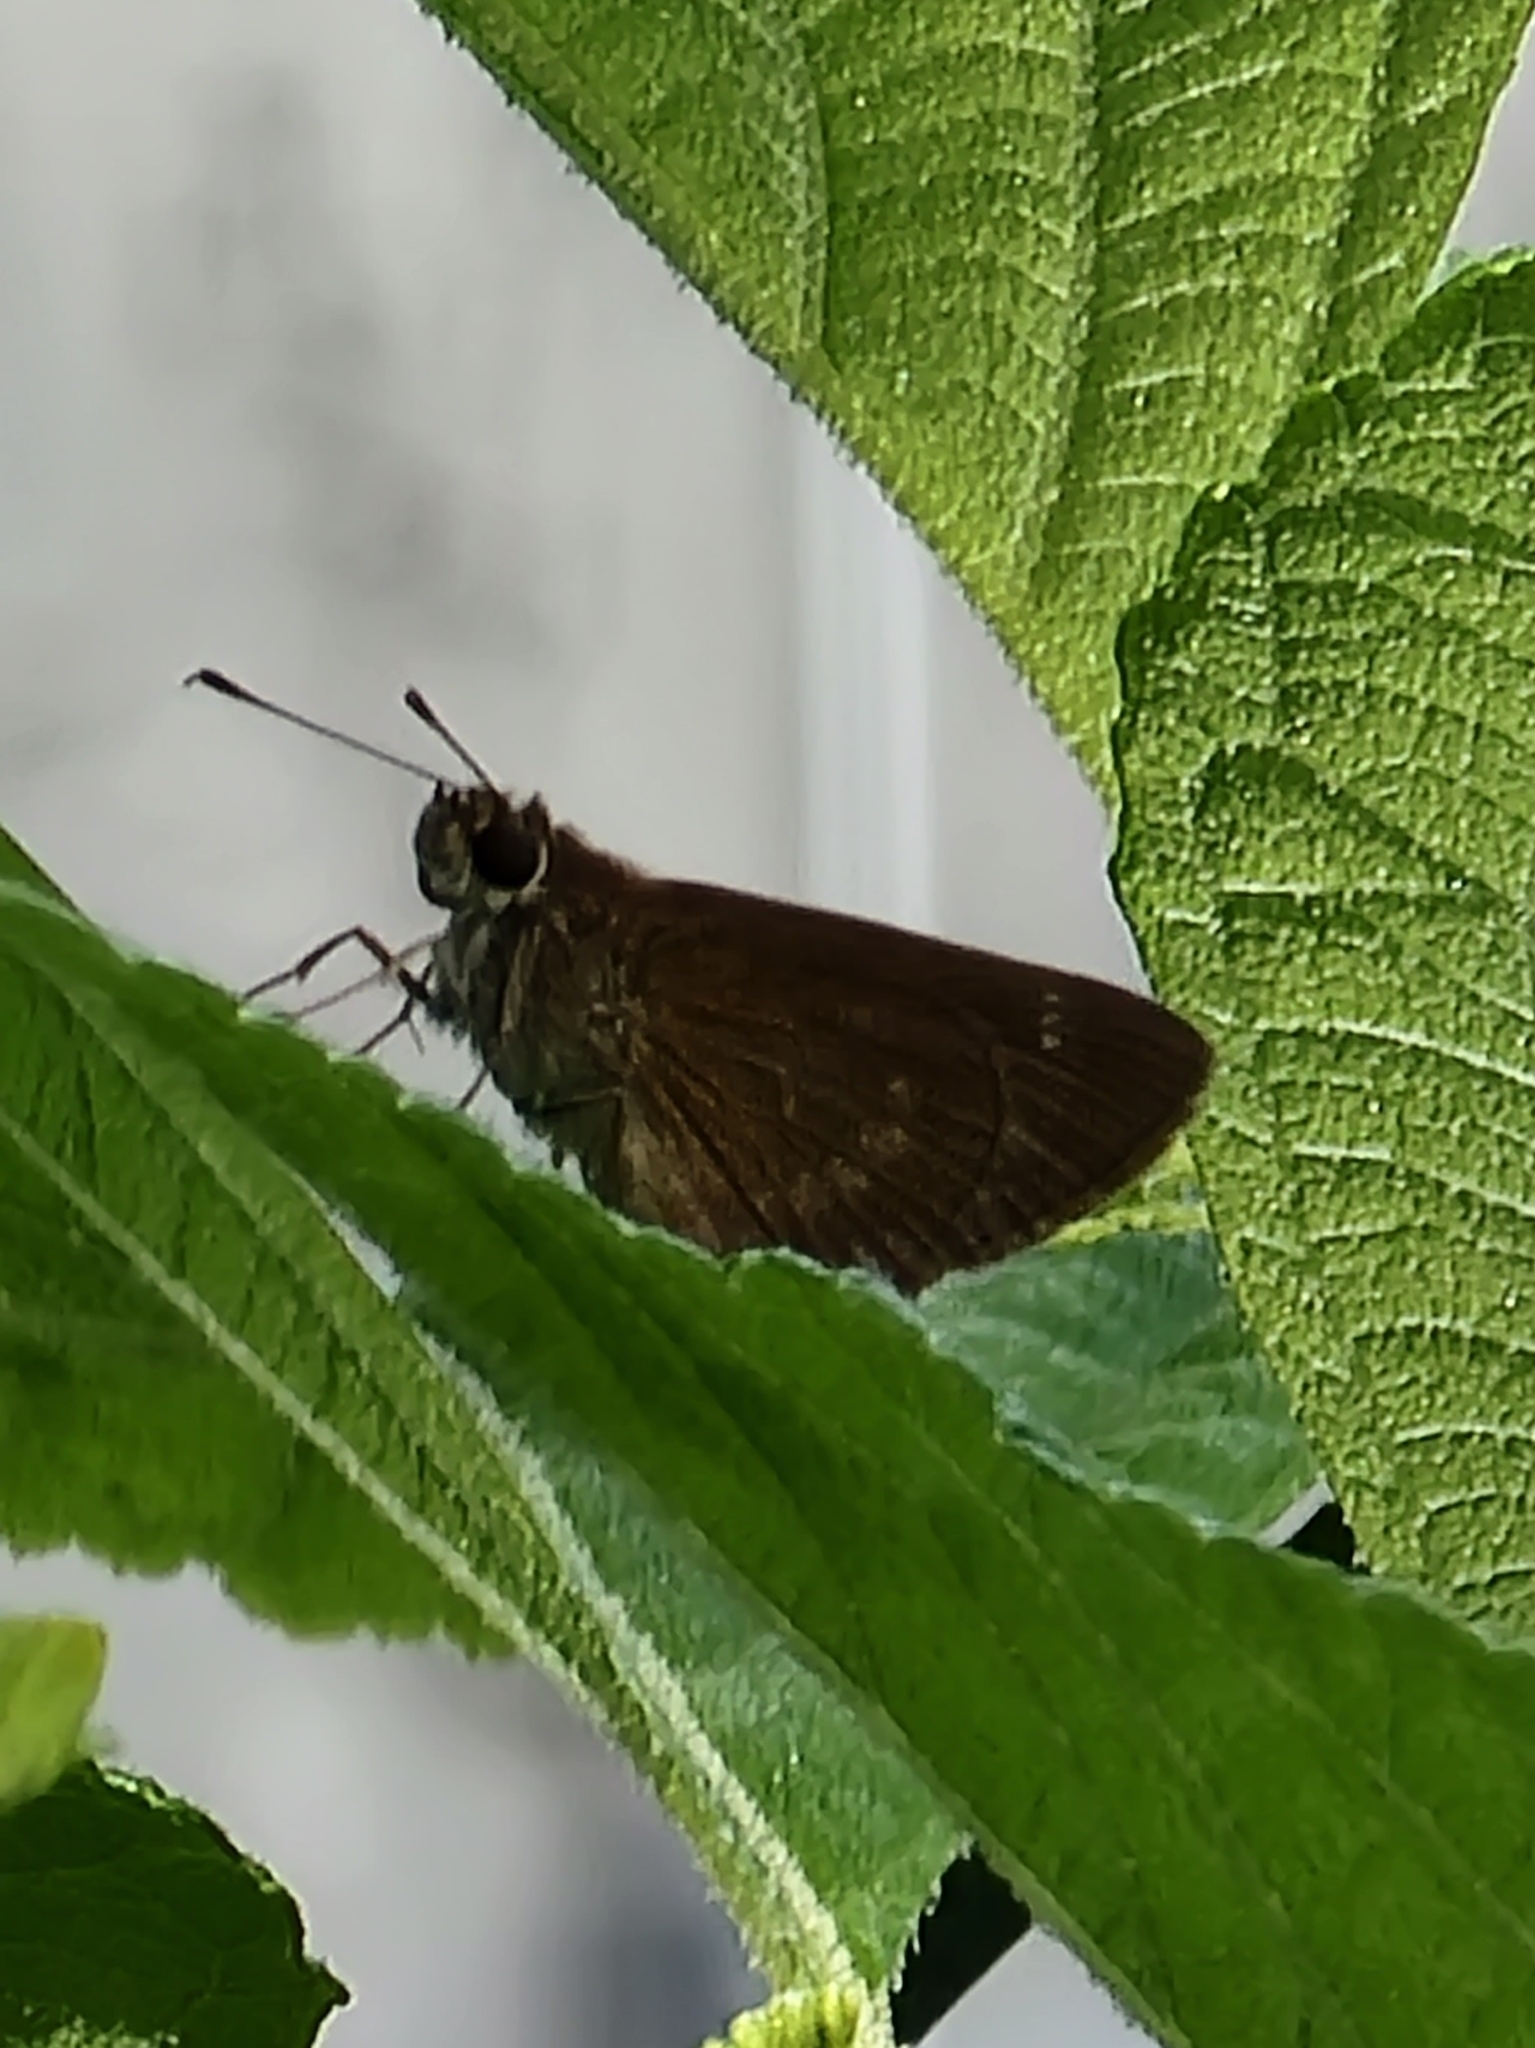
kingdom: Animalia
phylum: Arthropoda
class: Insecta
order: Lepidoptera
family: Hesperiidae
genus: Cymaenes
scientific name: Cymaenes tripunctus
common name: Dingy dotted skipper
